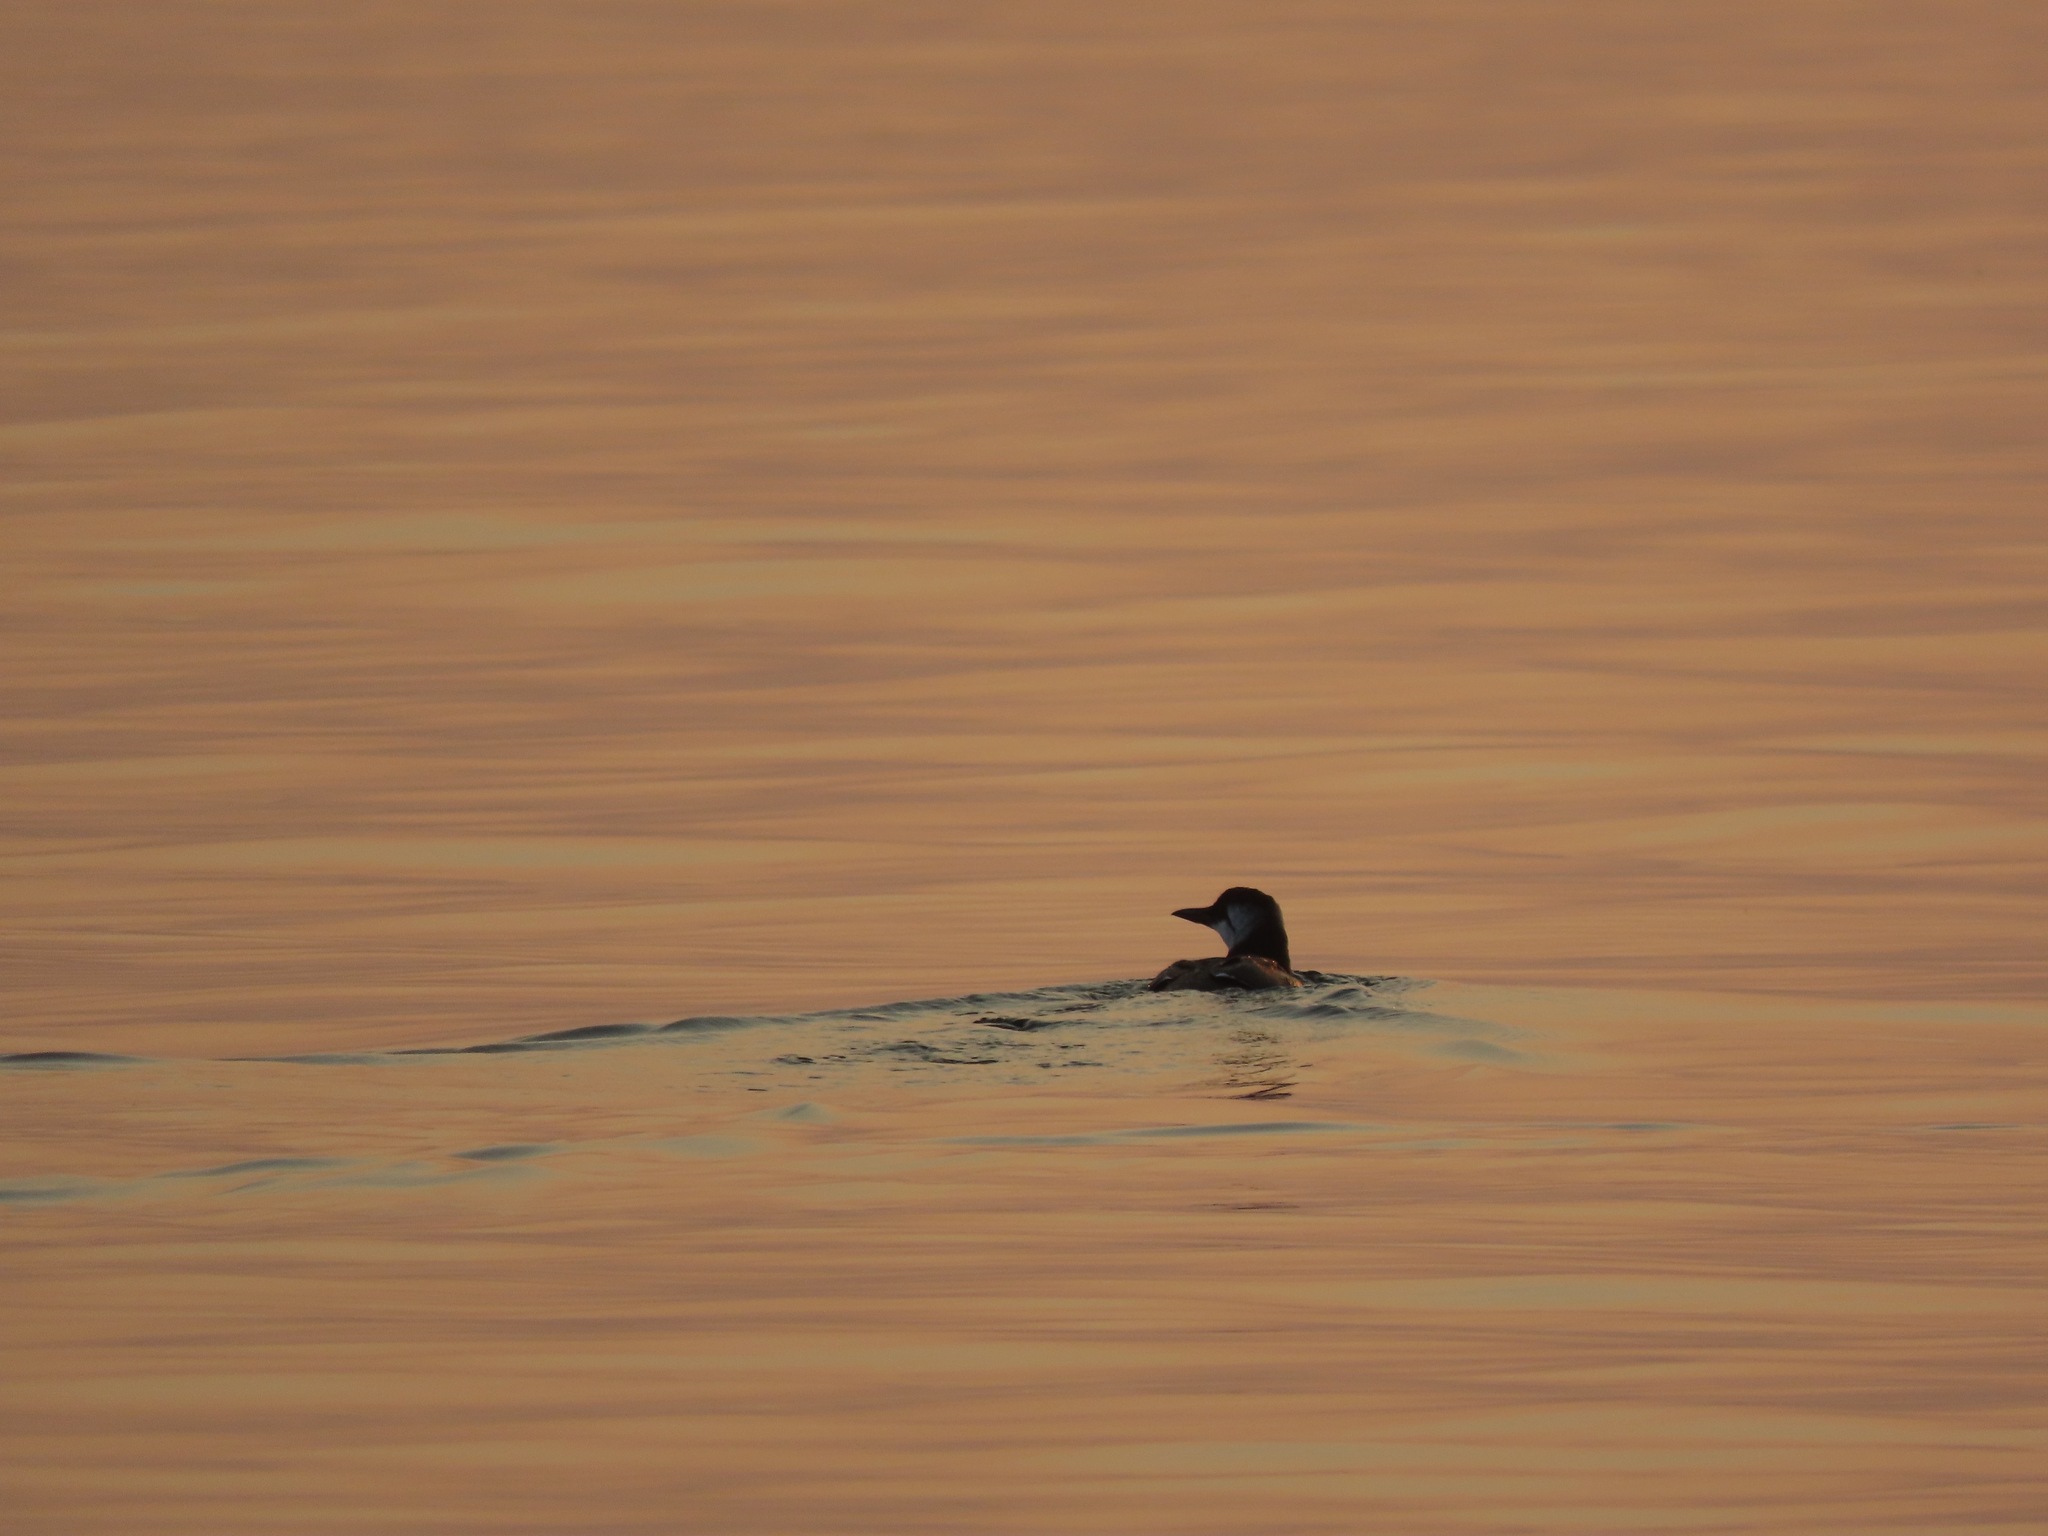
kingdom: Animalia
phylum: Chordata
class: Aves
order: Charadriiformes
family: Alcidae
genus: Uria
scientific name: Uria aalge
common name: Common murre
